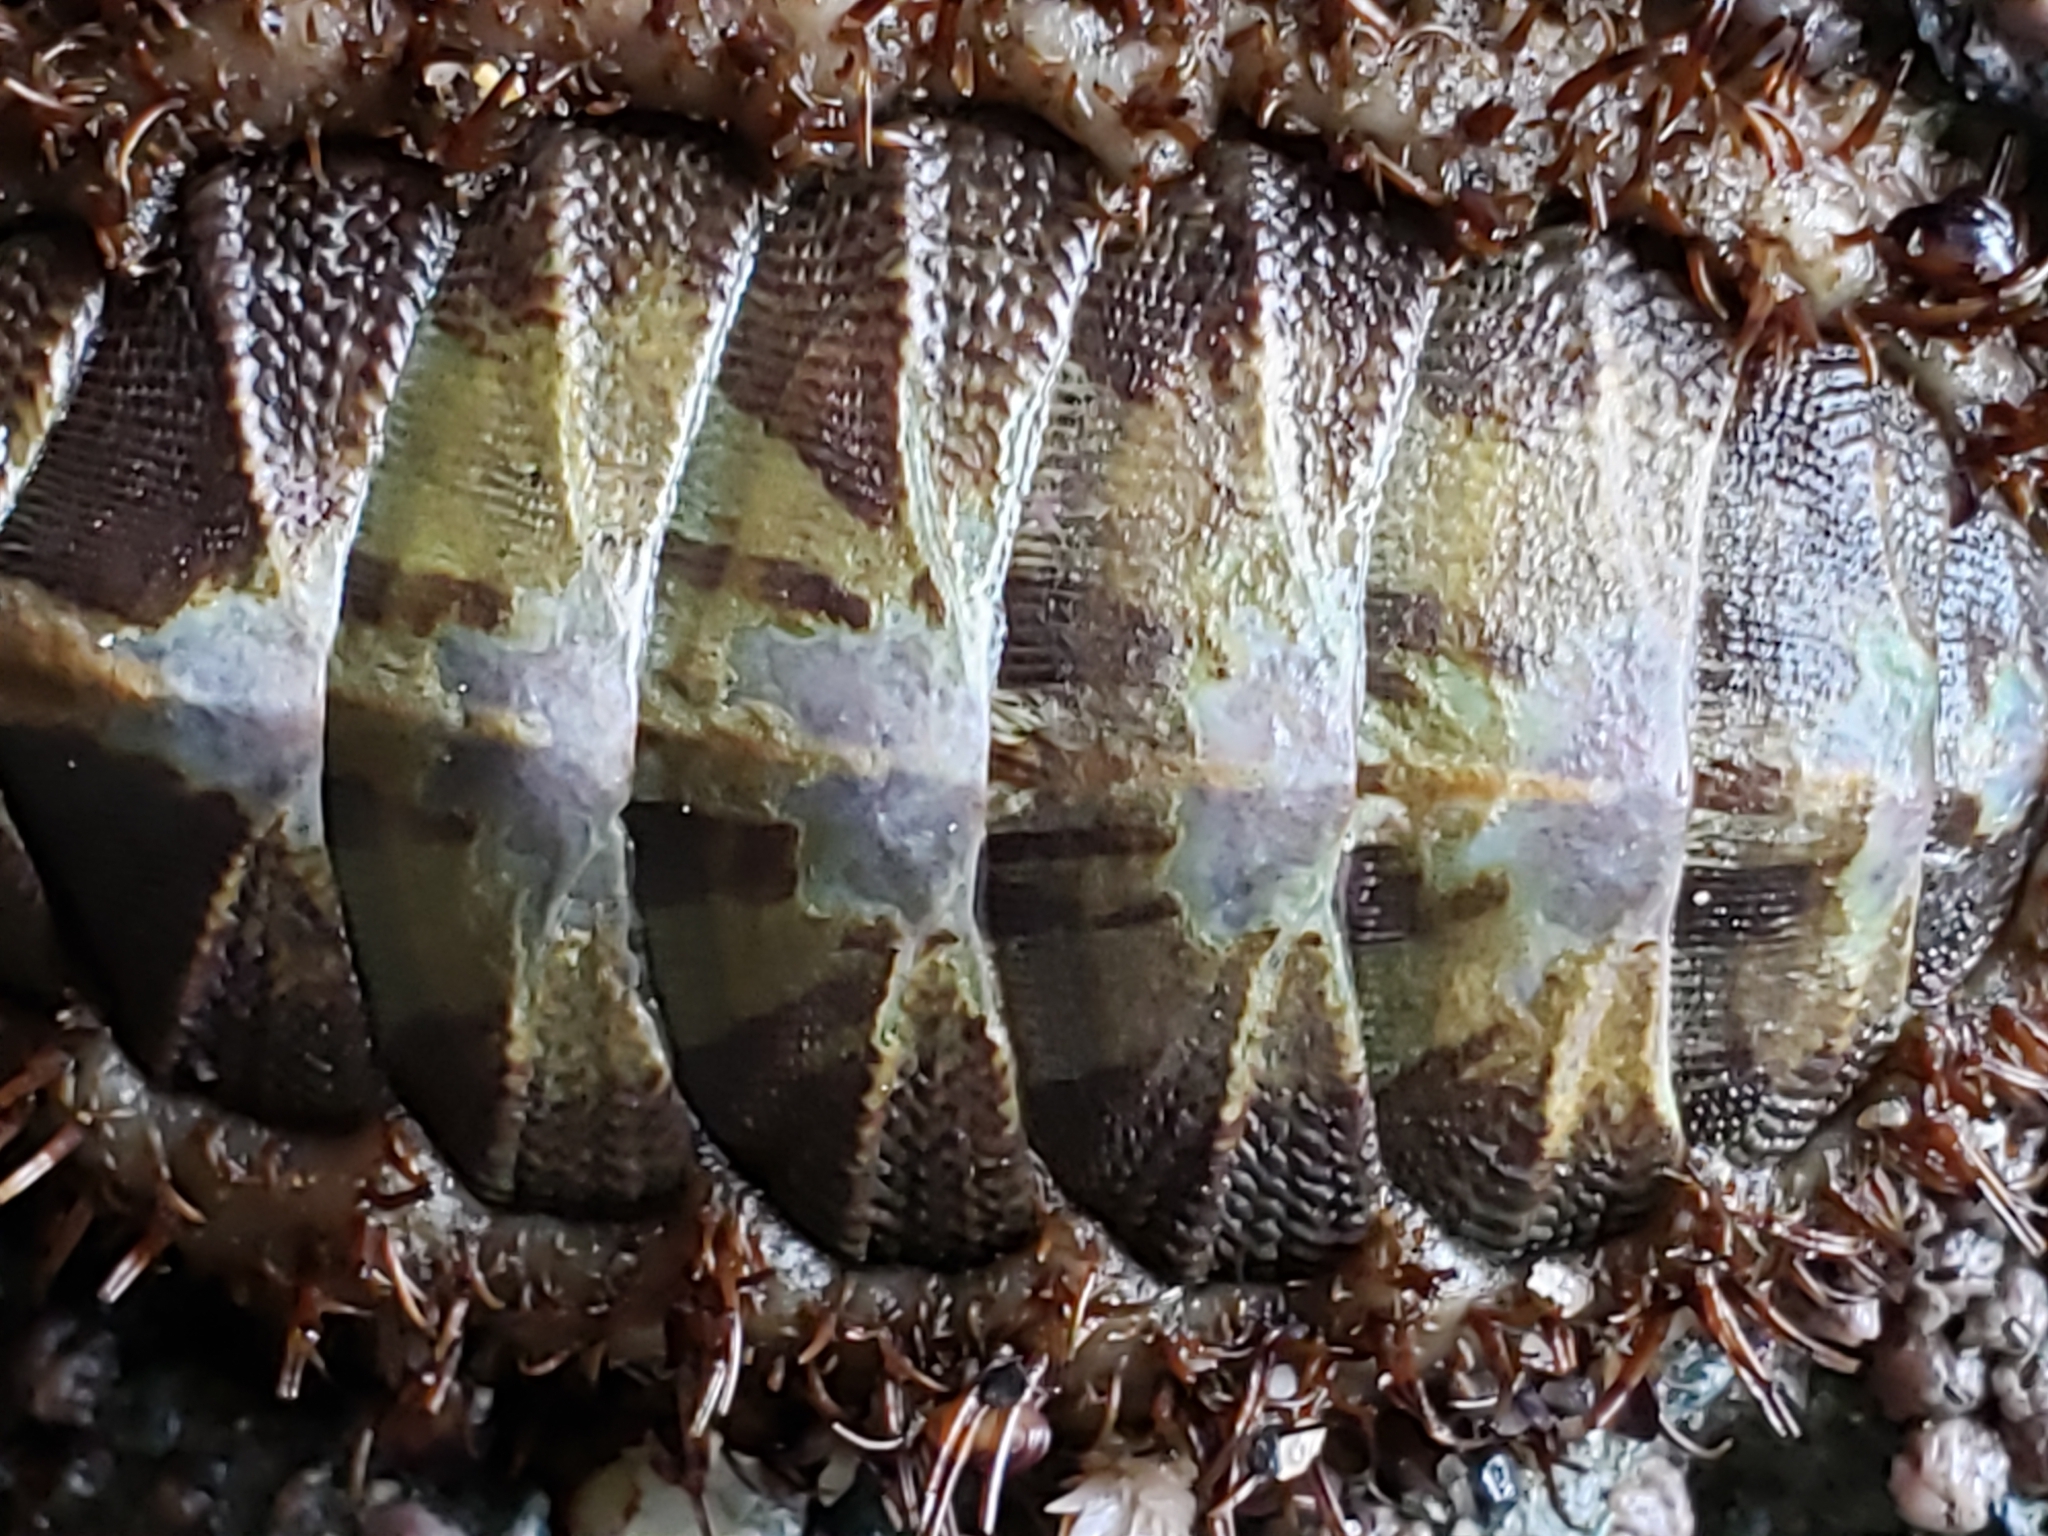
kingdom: Animalia
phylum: Mollusca
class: Polyplacophora
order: Chitonida
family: Mopaliidae
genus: Mopalia
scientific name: Mopalia muscosa
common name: Mossy chiton
